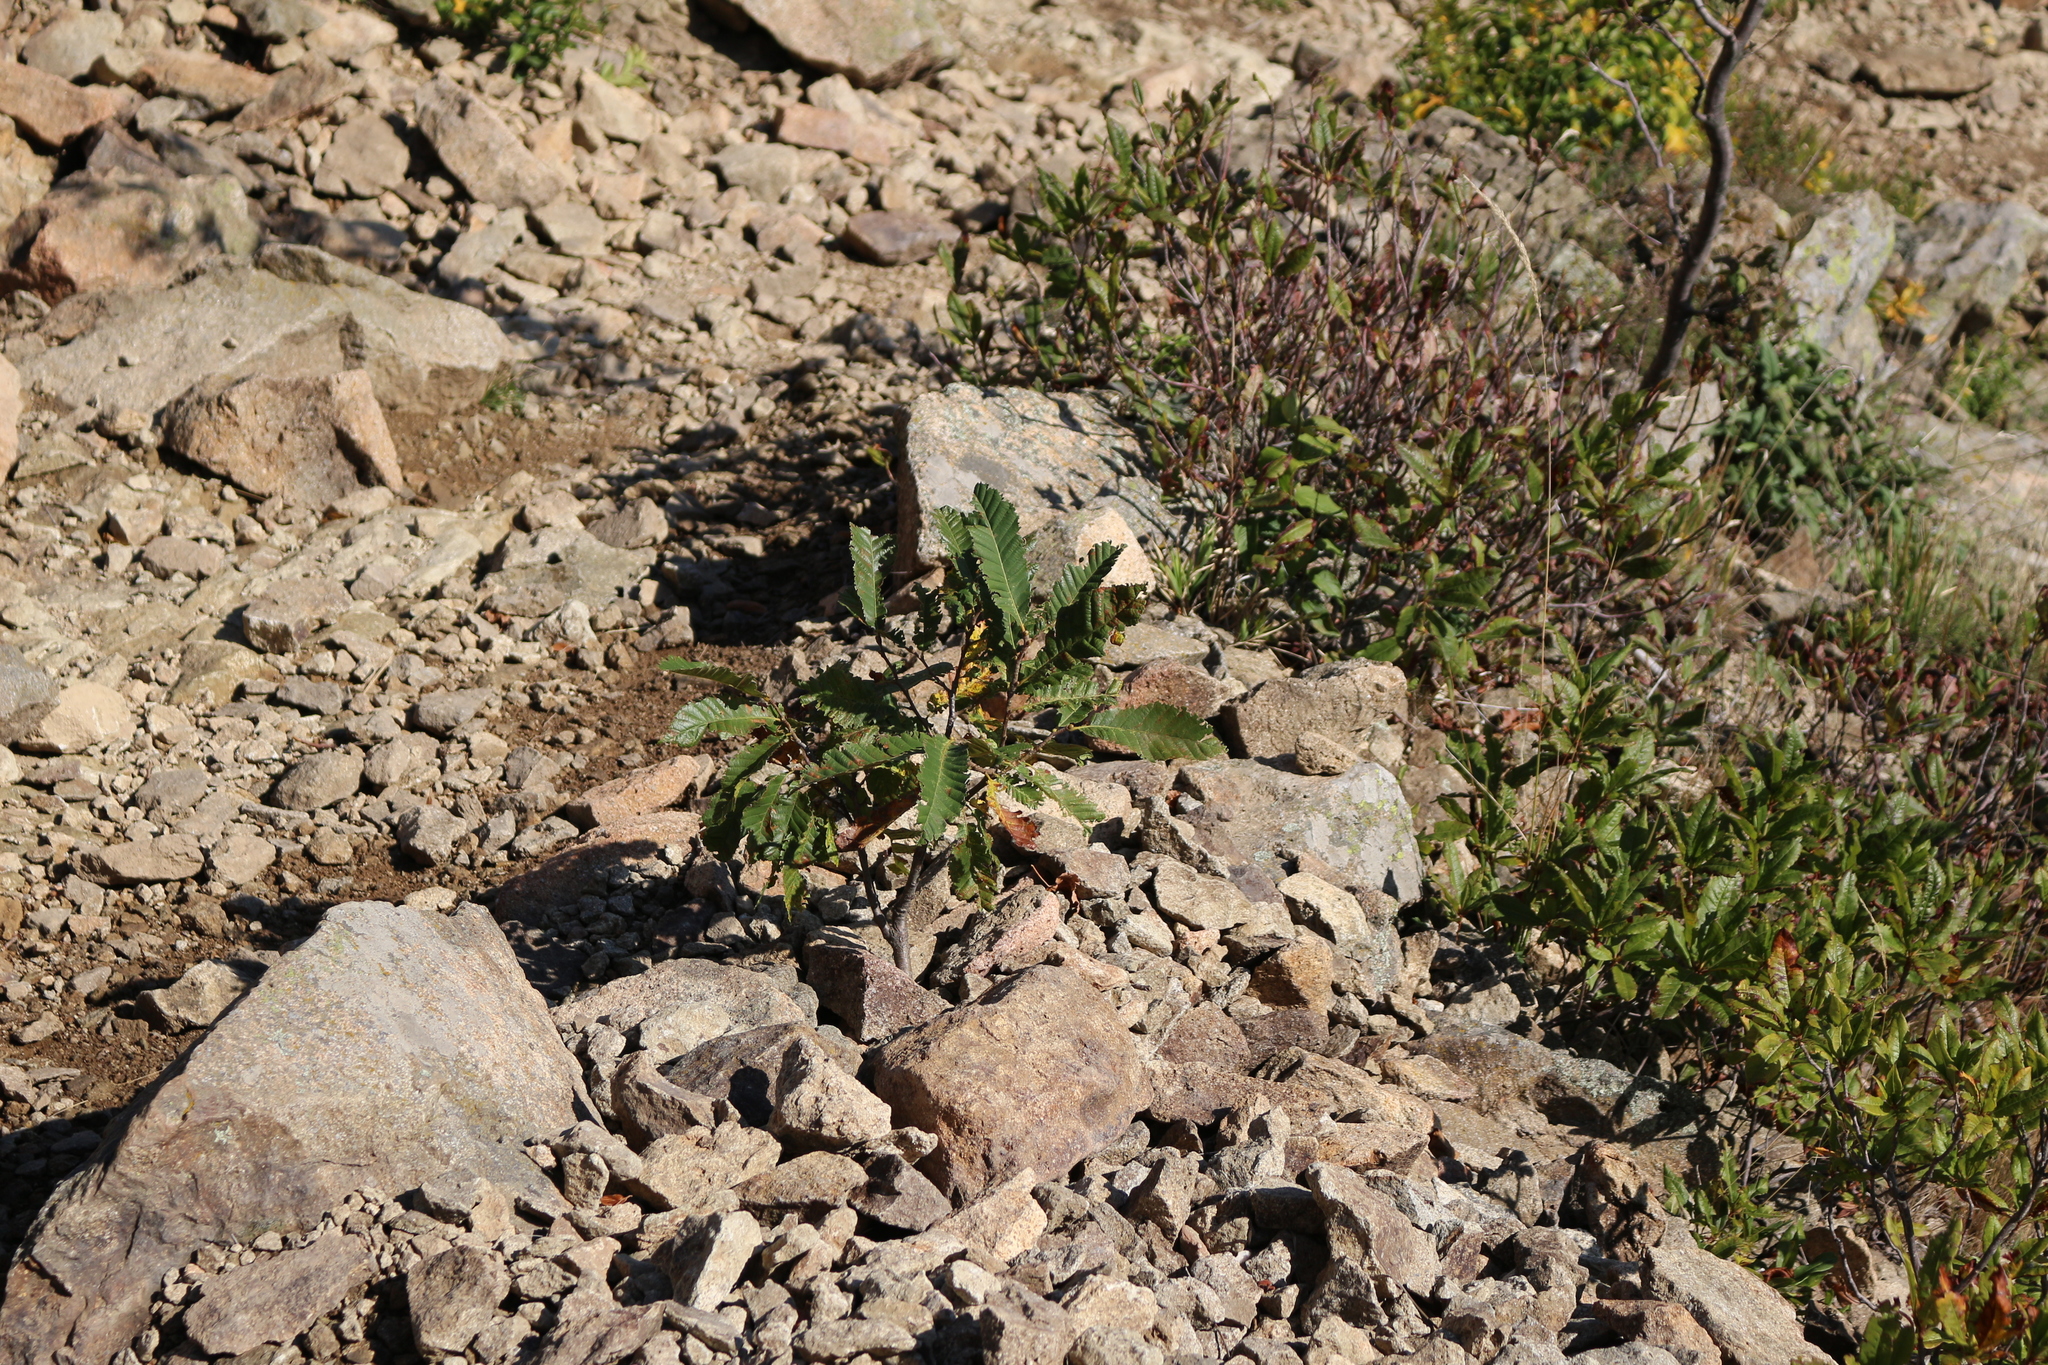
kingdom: Plantae
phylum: Tracheophyta
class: Magnoliopsida
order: Fagales
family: Fagaceae
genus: Castanea
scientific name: Castanea sativa
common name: Sweet chestnut
